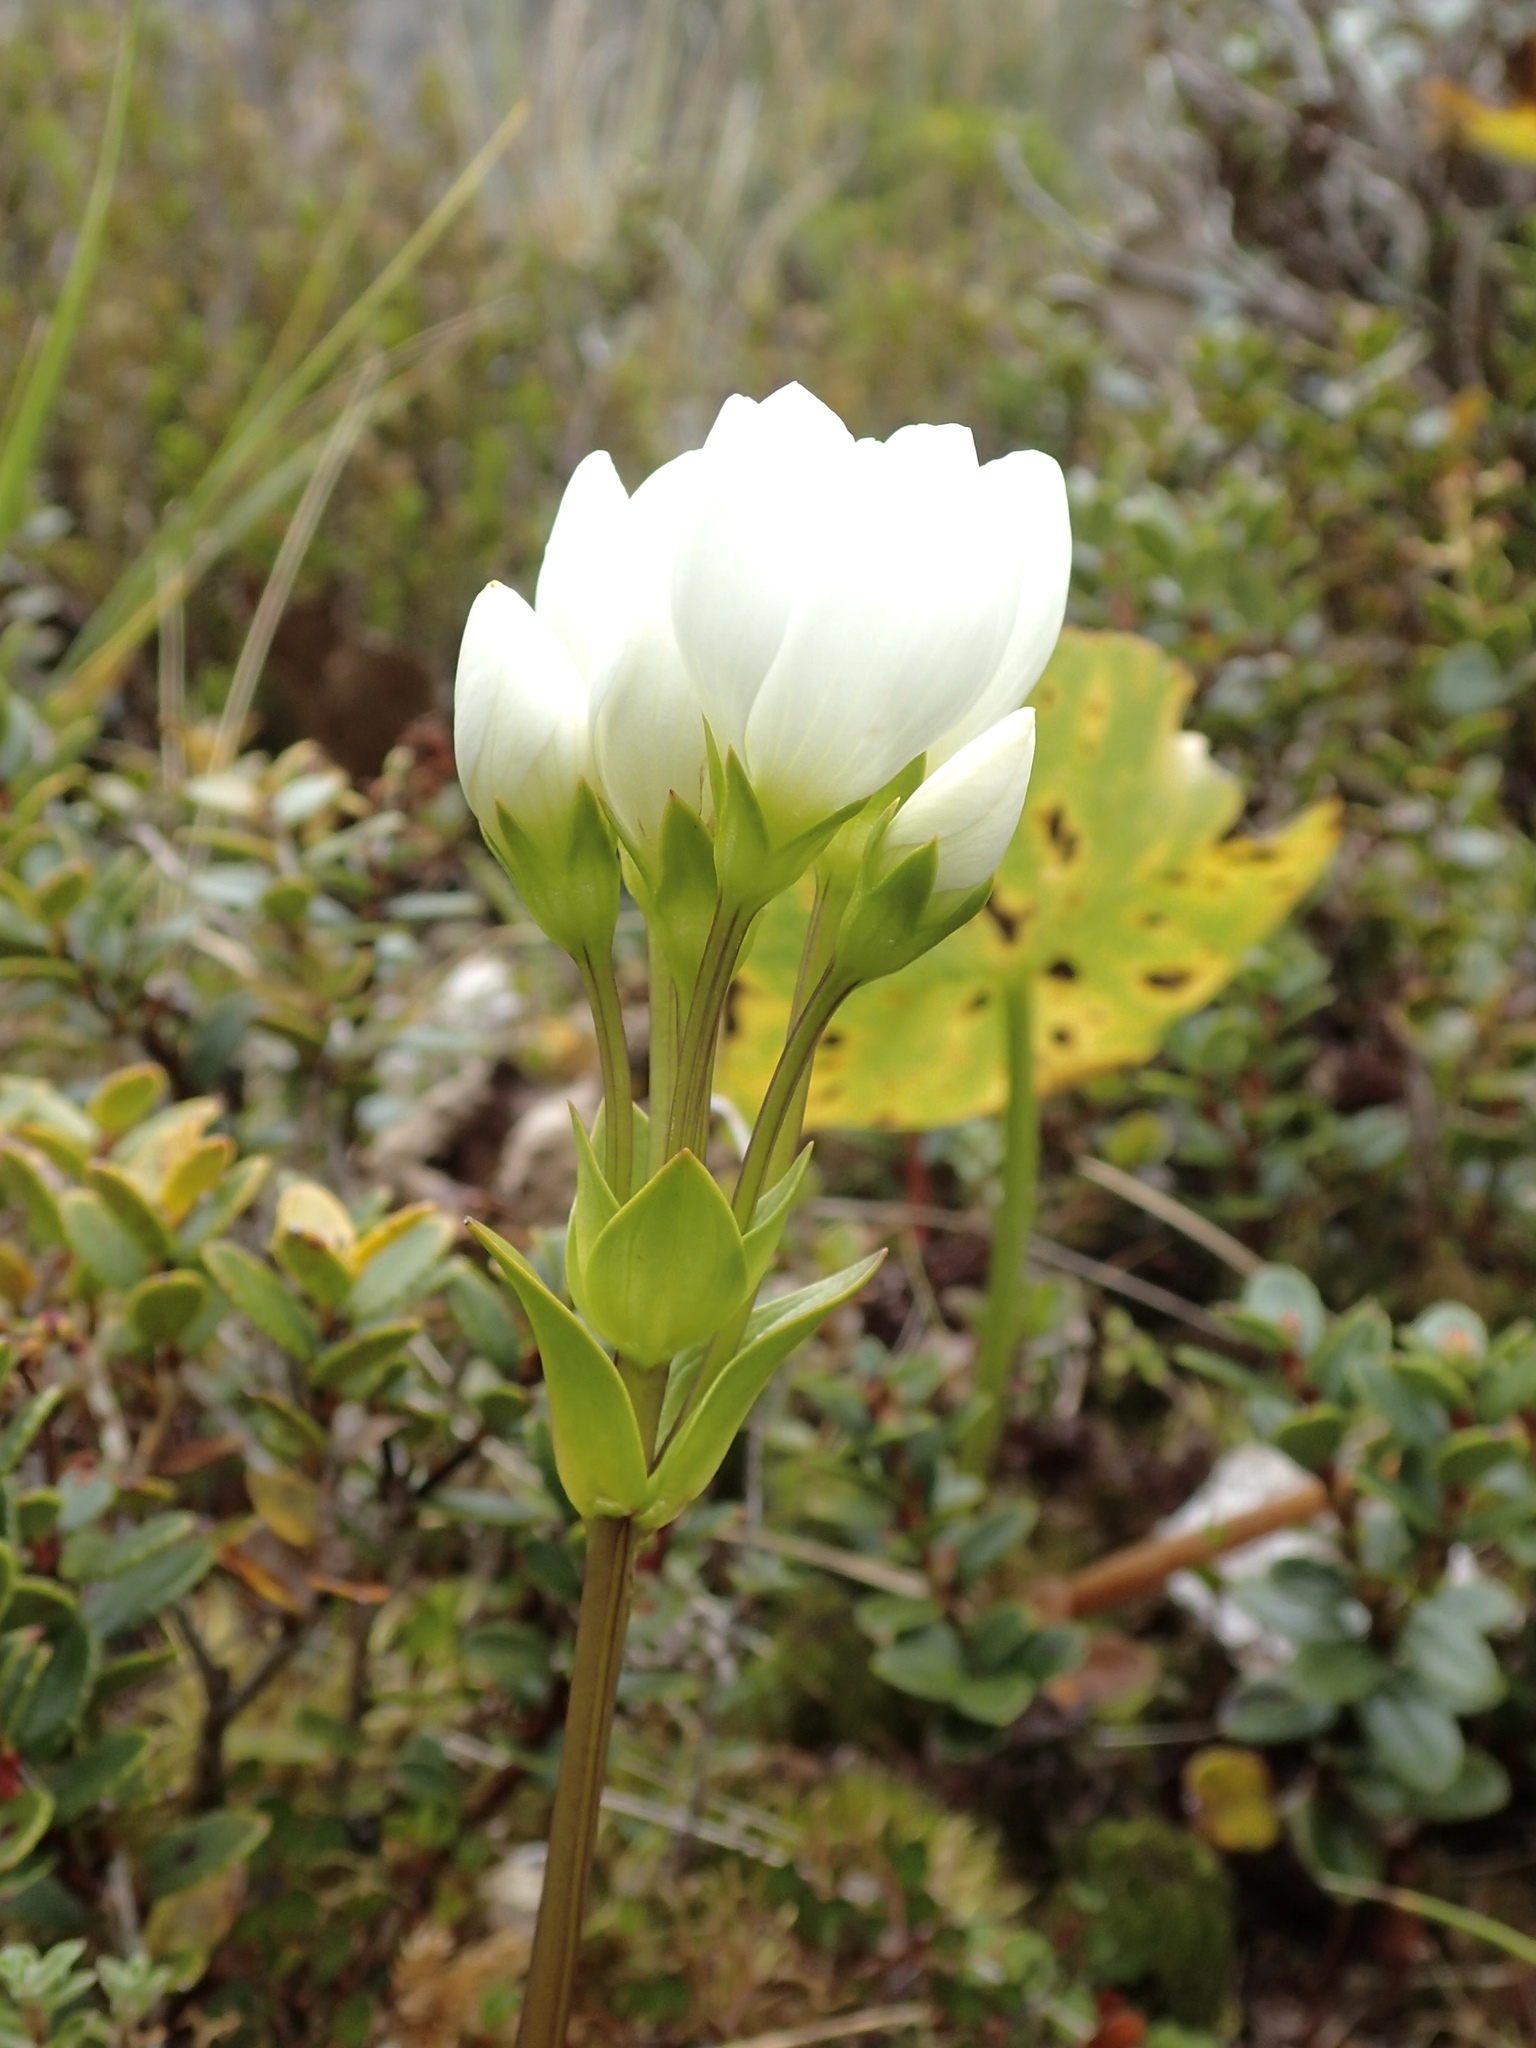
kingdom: Plantae
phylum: Tracheophyta
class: Magnoliopsida
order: Gentianales
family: Gentianaceae
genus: Gentianella
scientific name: Gentianella montana
